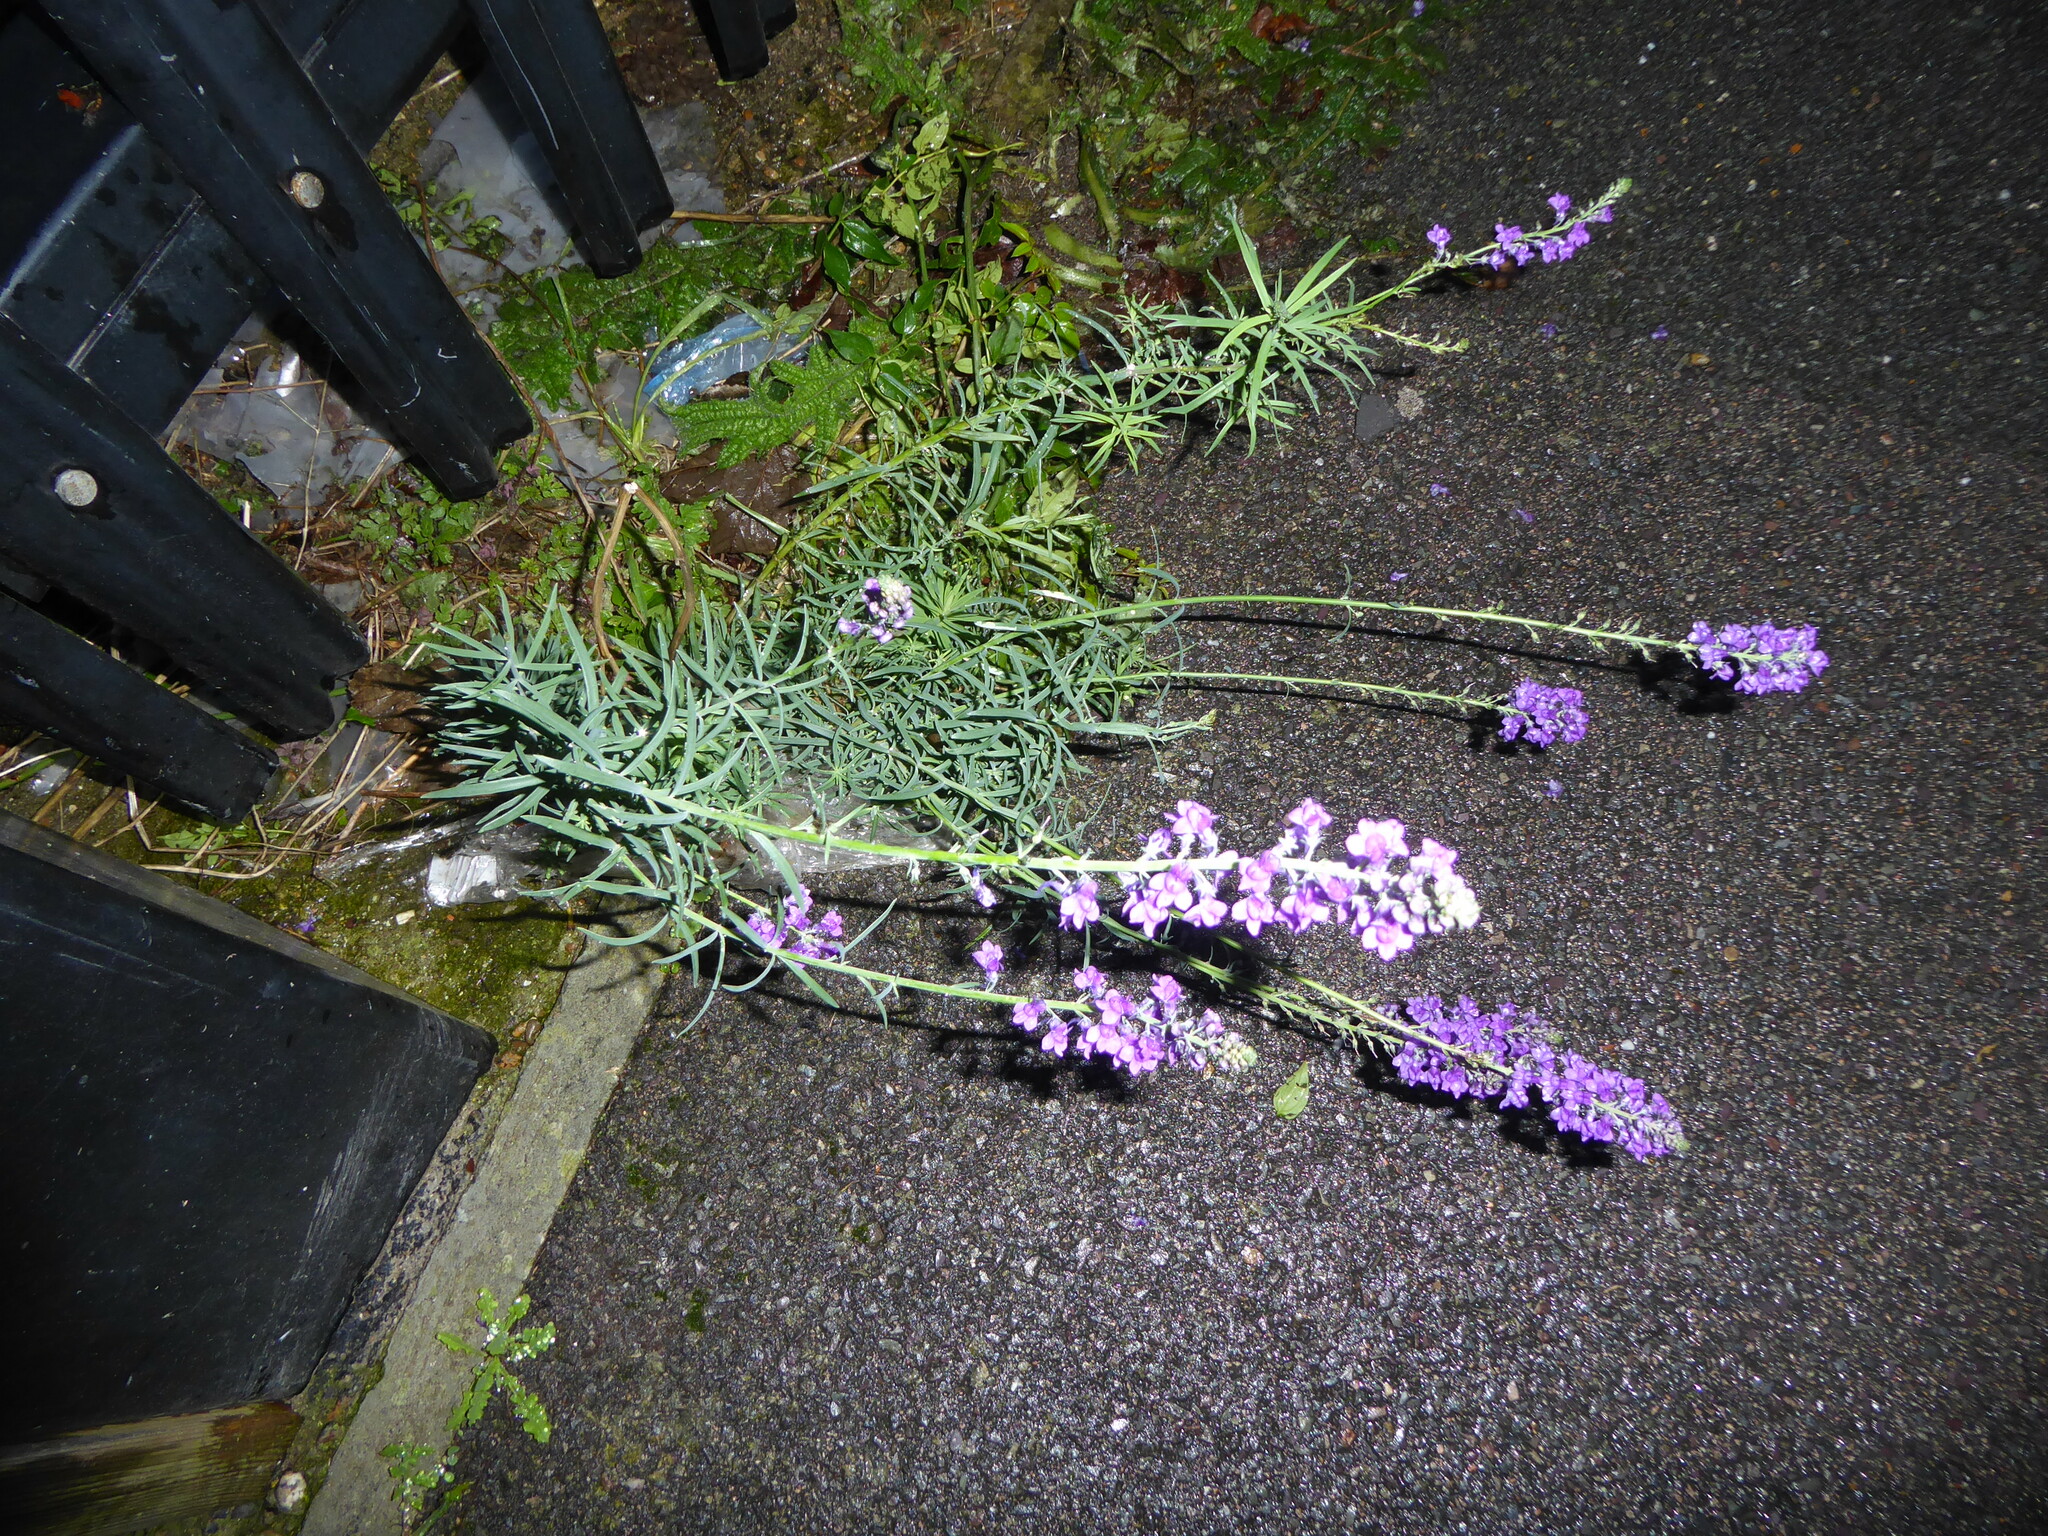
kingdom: Plantae
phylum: Tracheophyta
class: Magnoliopsida
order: Lamiales
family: Plantaginaceae
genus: Linaria
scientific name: Linaria purpurea
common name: Purple toadflax
